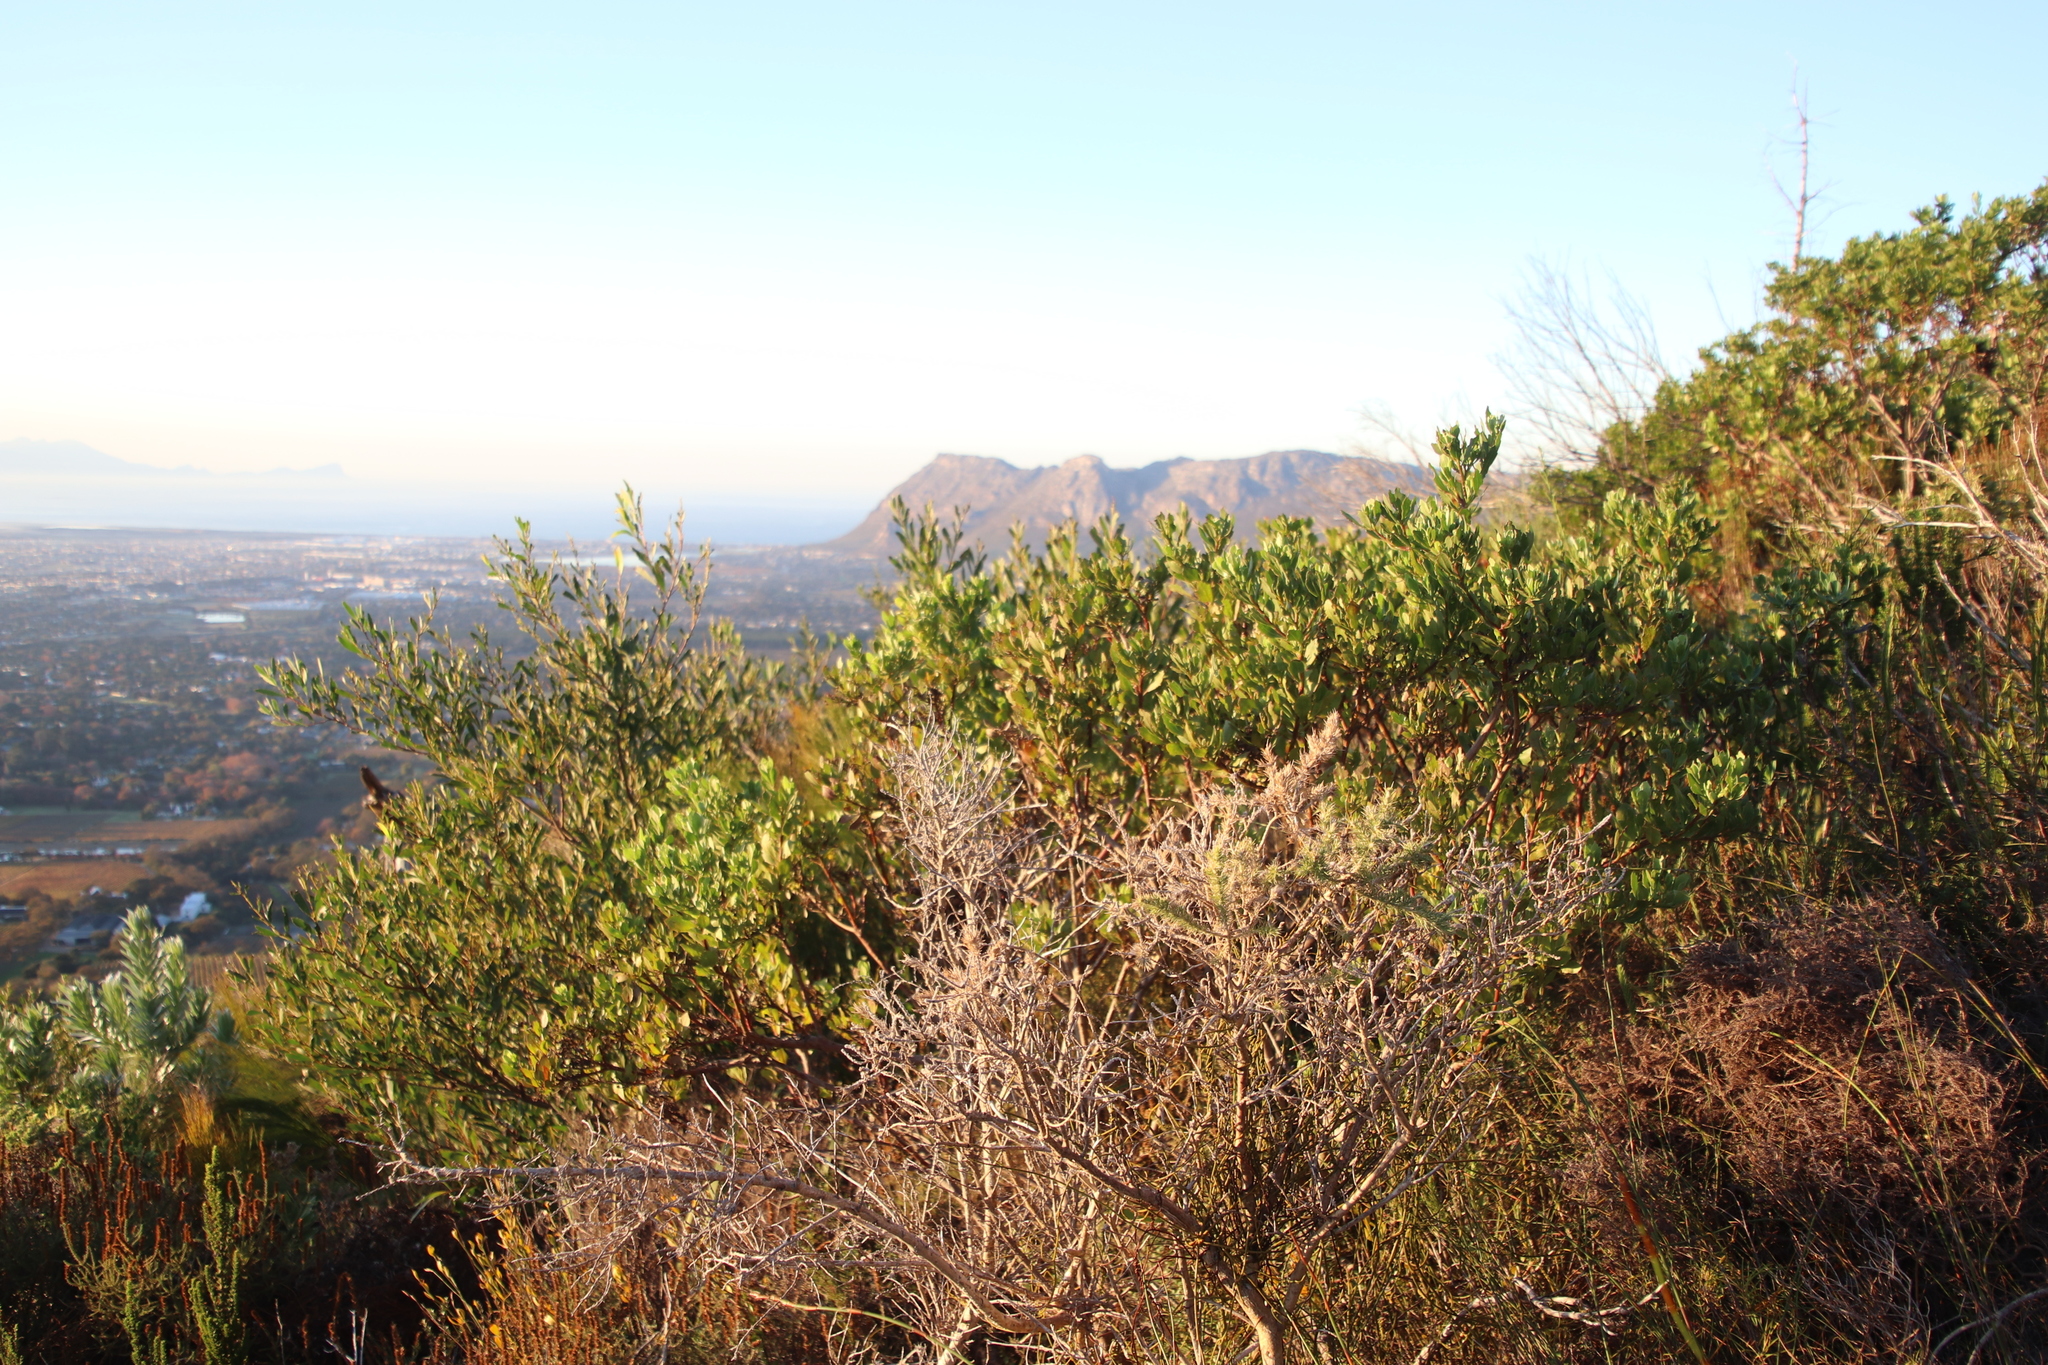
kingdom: Plantae
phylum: Tracheophyta
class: Magnoliopsida
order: Asterales
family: Asteraceae
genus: Osteospermum
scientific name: Osteospermum moniliferum
